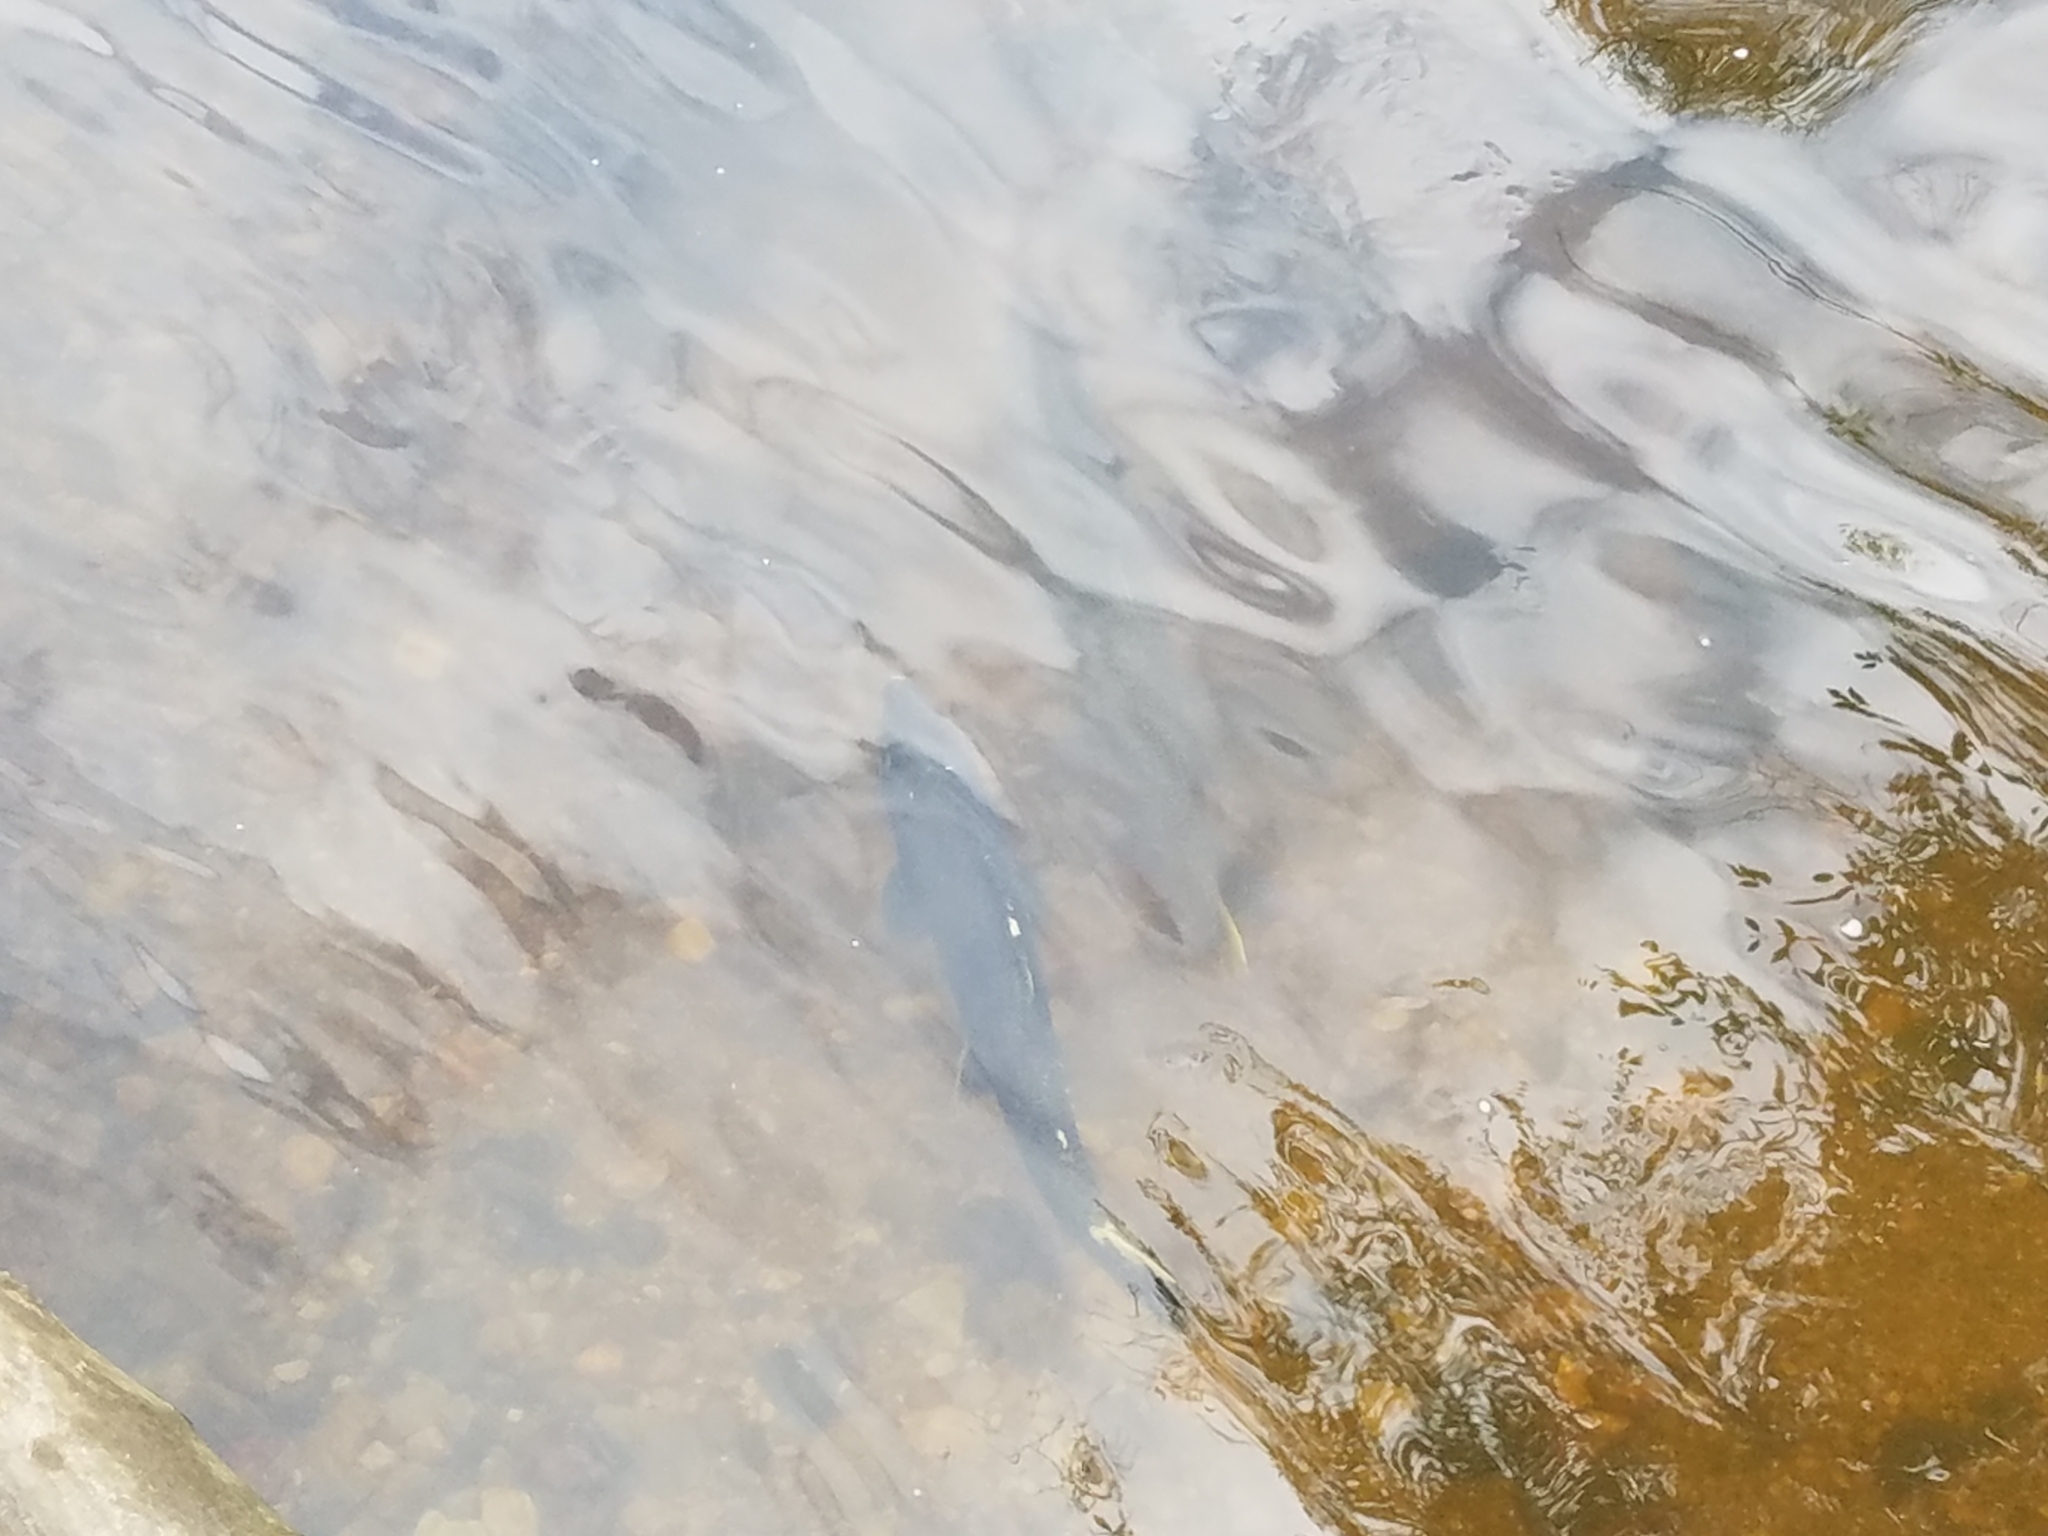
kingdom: Animalia
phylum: Chordata
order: Salmoniformes
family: Salmonidae
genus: Oncorhynchus
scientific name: Oncorhynchus tshawytscha
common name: Chinook salmon
